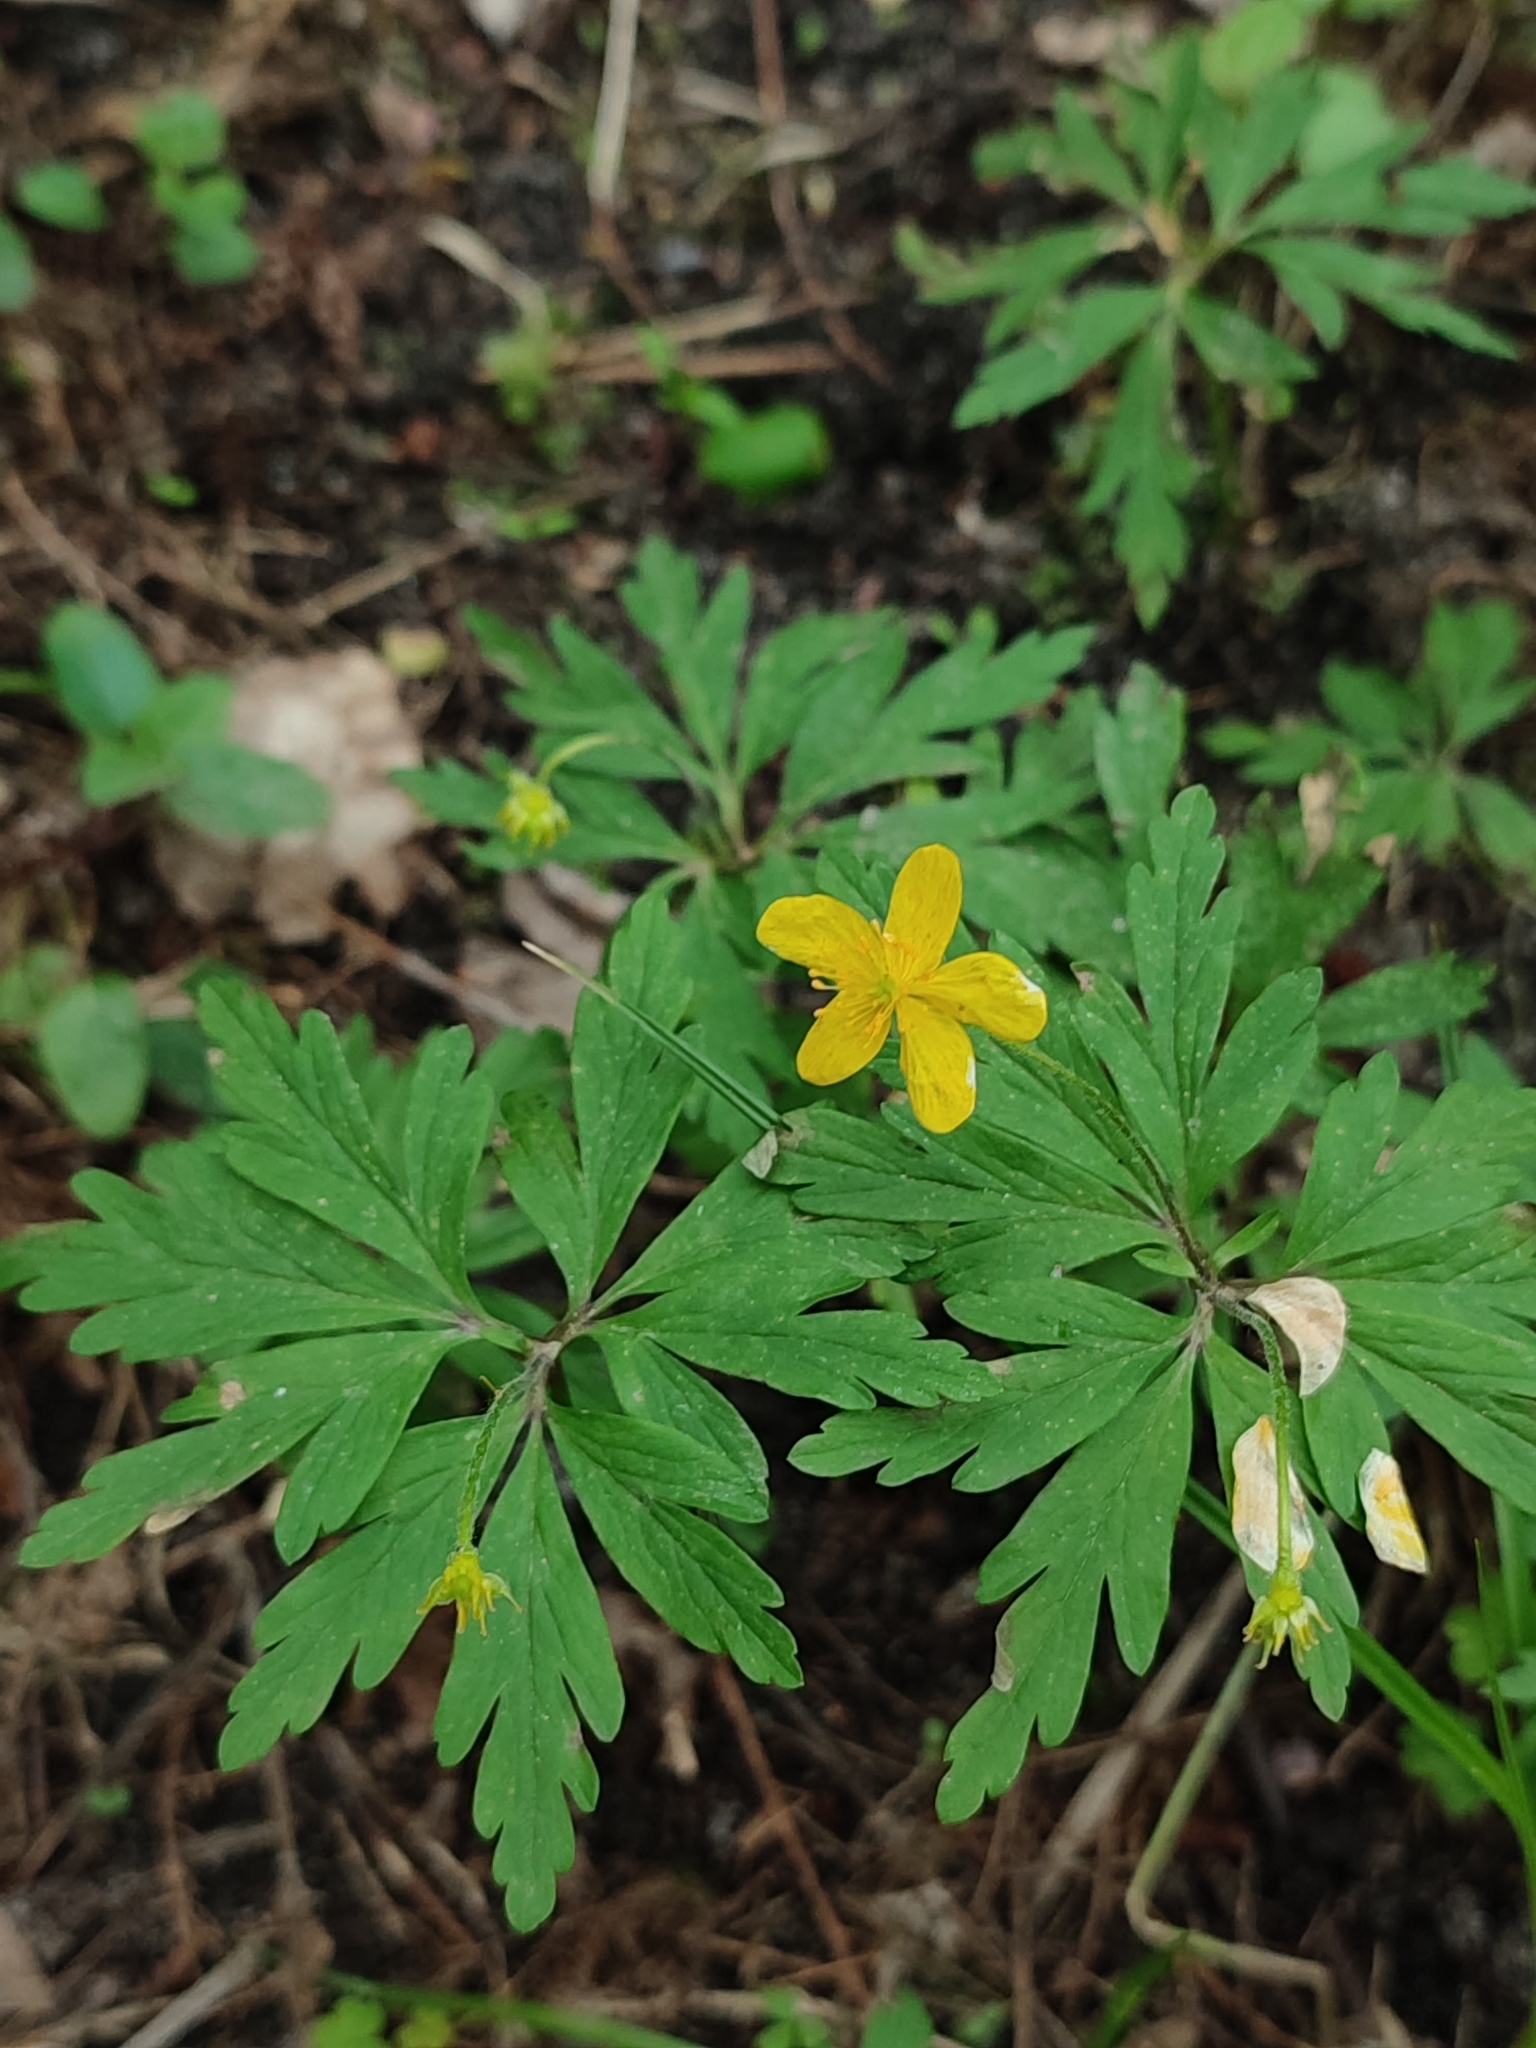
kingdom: Plantae
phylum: Tracheophyta
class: Magnoliopsida
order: Ranunculales
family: Ranunculaceae
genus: Anemone
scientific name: Anemone ranunculoides
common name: Yellow anemone
